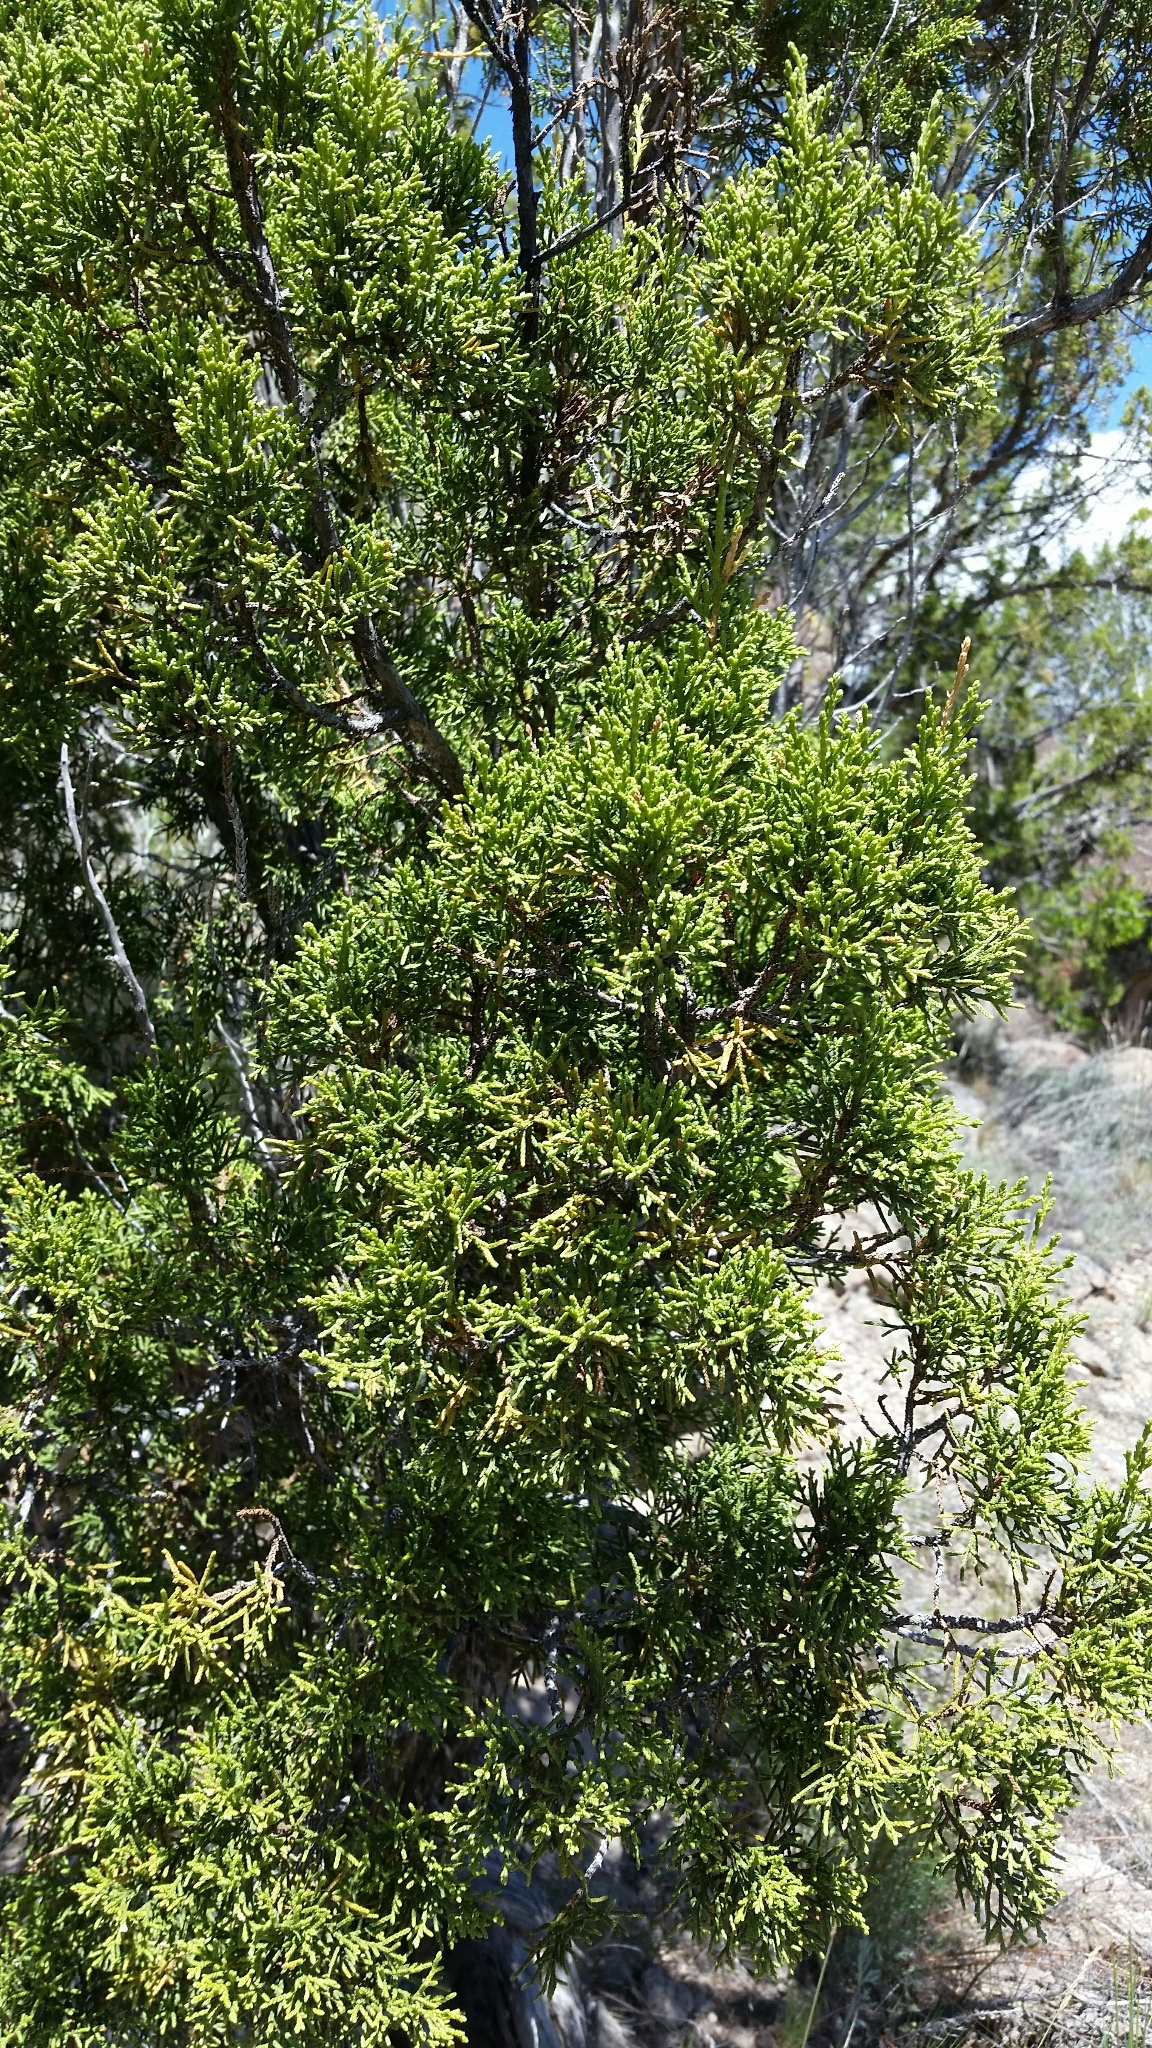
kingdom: Plantae
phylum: Tracheophyta
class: Pinopsida
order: Pinales
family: Cupressaceae
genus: Juniperus
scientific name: Juniperus monosperma
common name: One-seed juniper
